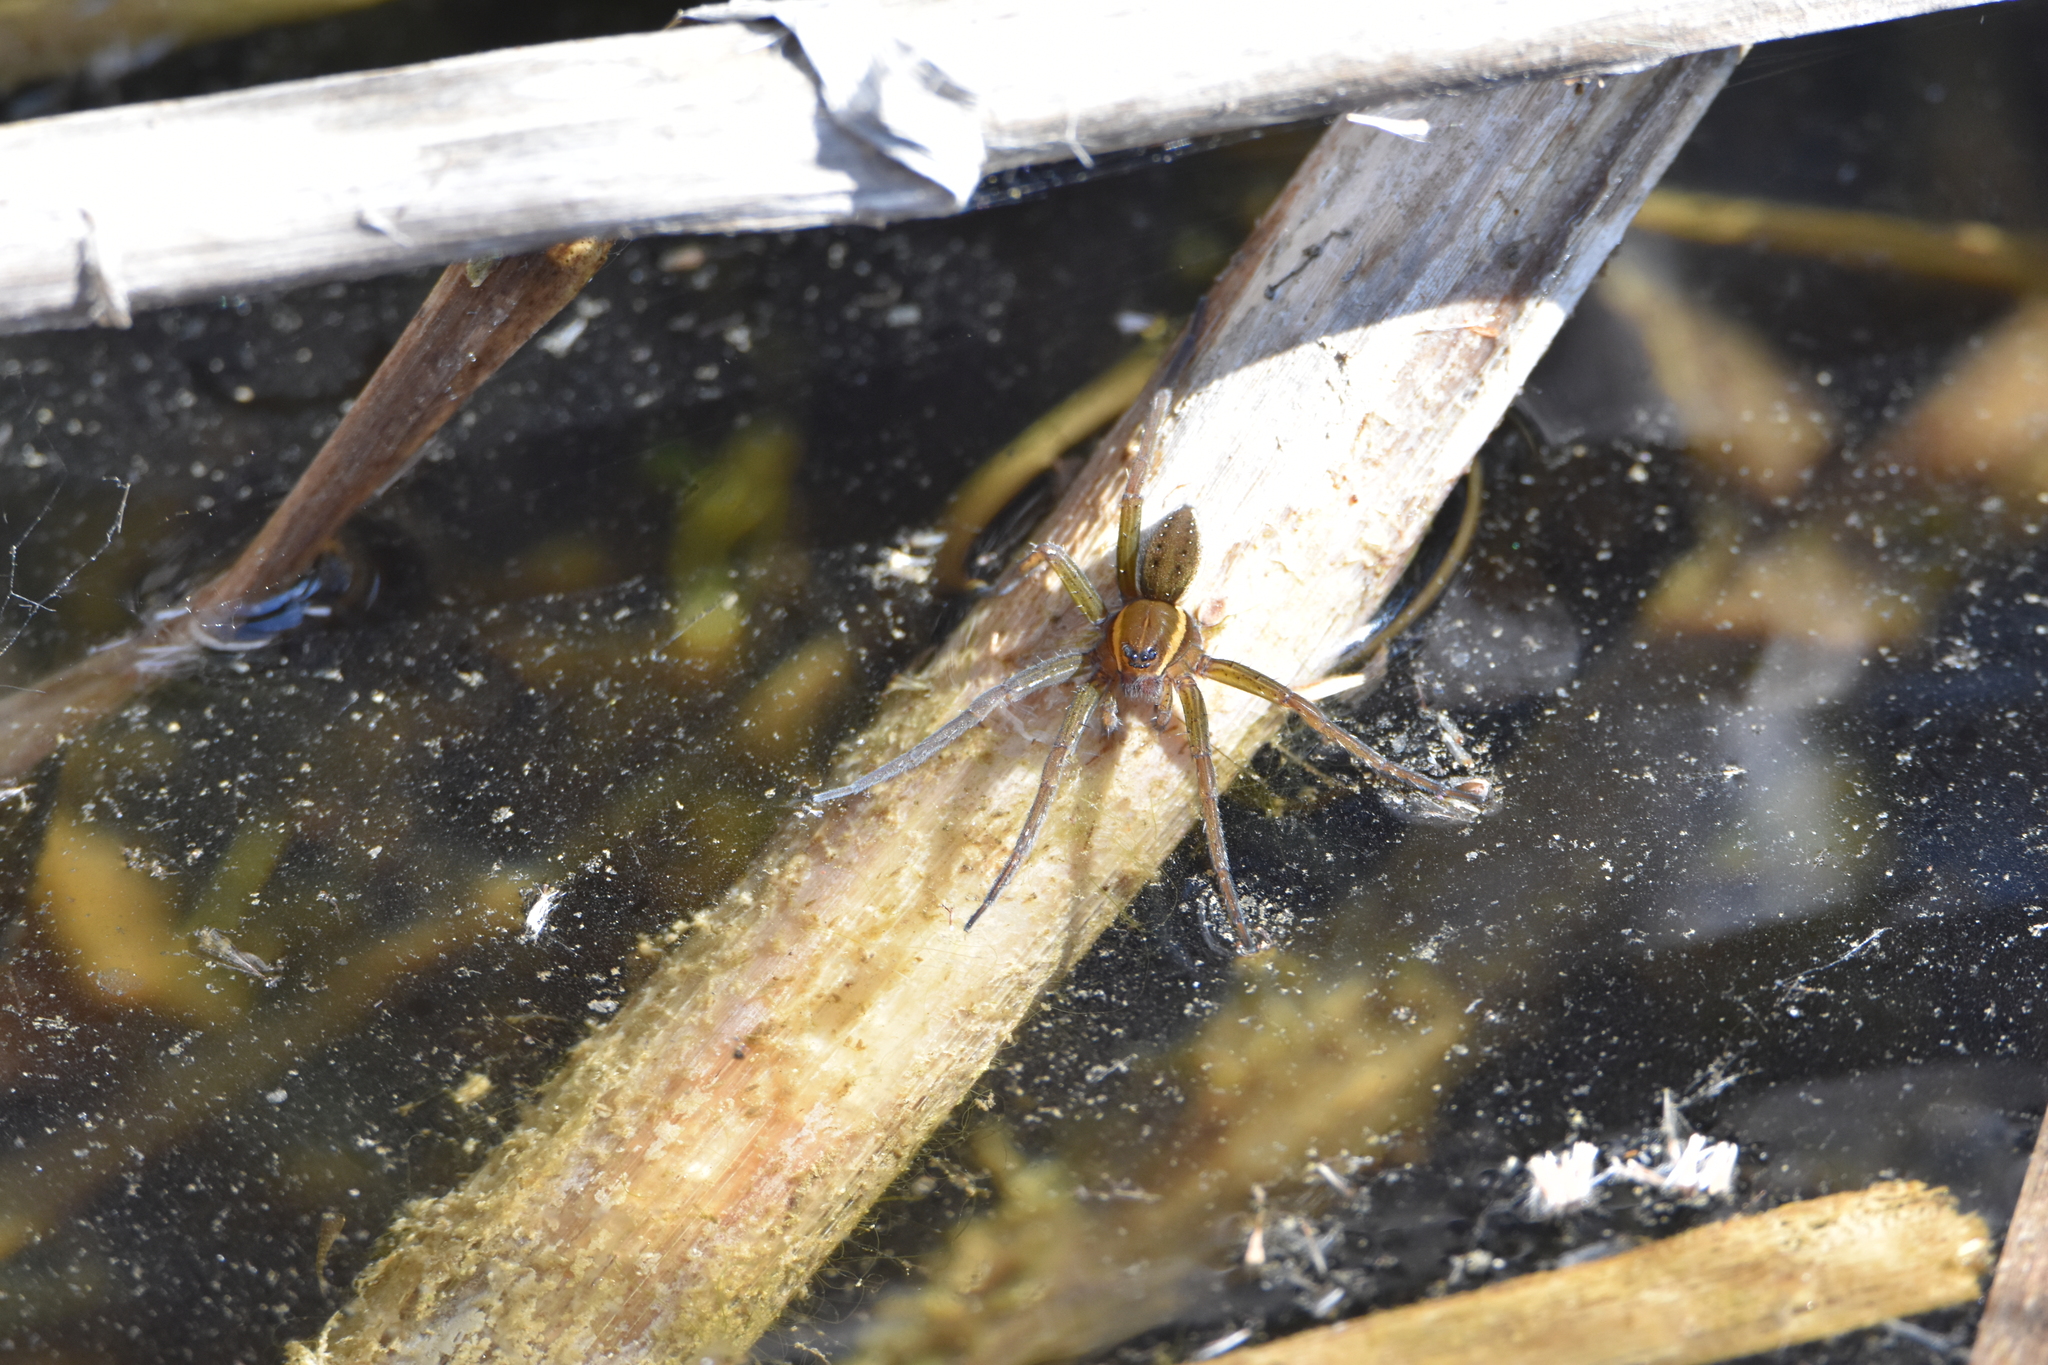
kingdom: Animalia
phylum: Arthropoda
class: Arachnida
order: Araneae
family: Pisauridae
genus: Dolomedes
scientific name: Dolomedes triton
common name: Six-spotted fishing spider
